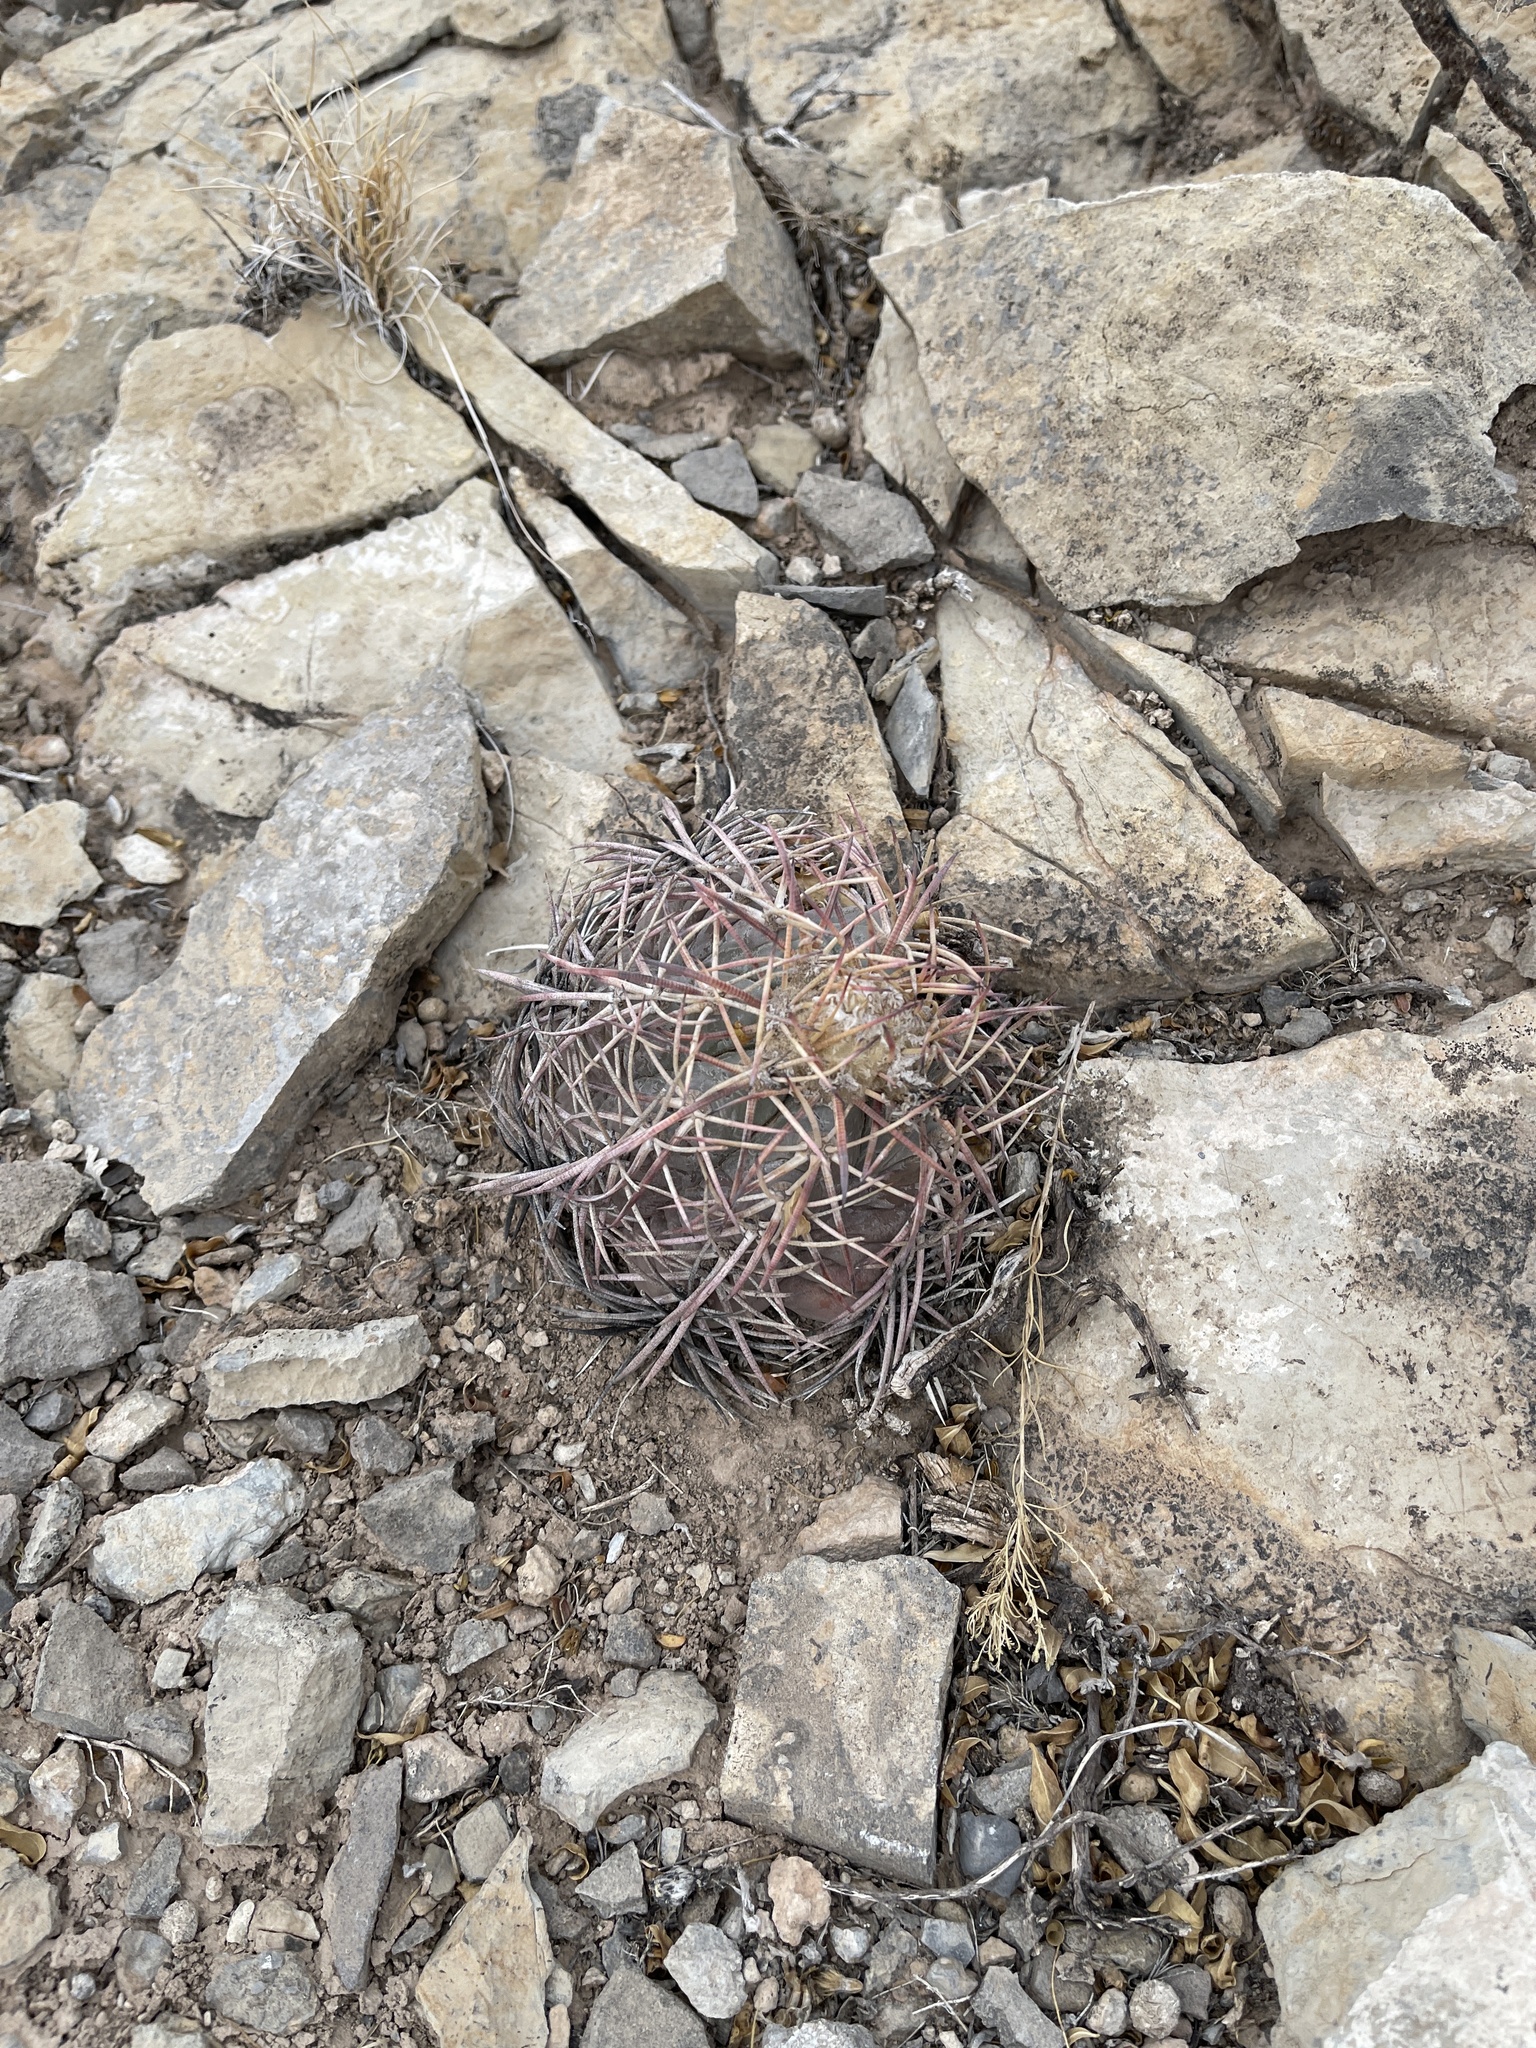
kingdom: Plantae
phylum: Tracheophyta
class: Magnoliopsida
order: Caryophyllales
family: Cactaceae
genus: Echinocactus
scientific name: Echinocactus horizonthalonius
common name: Devilshead
